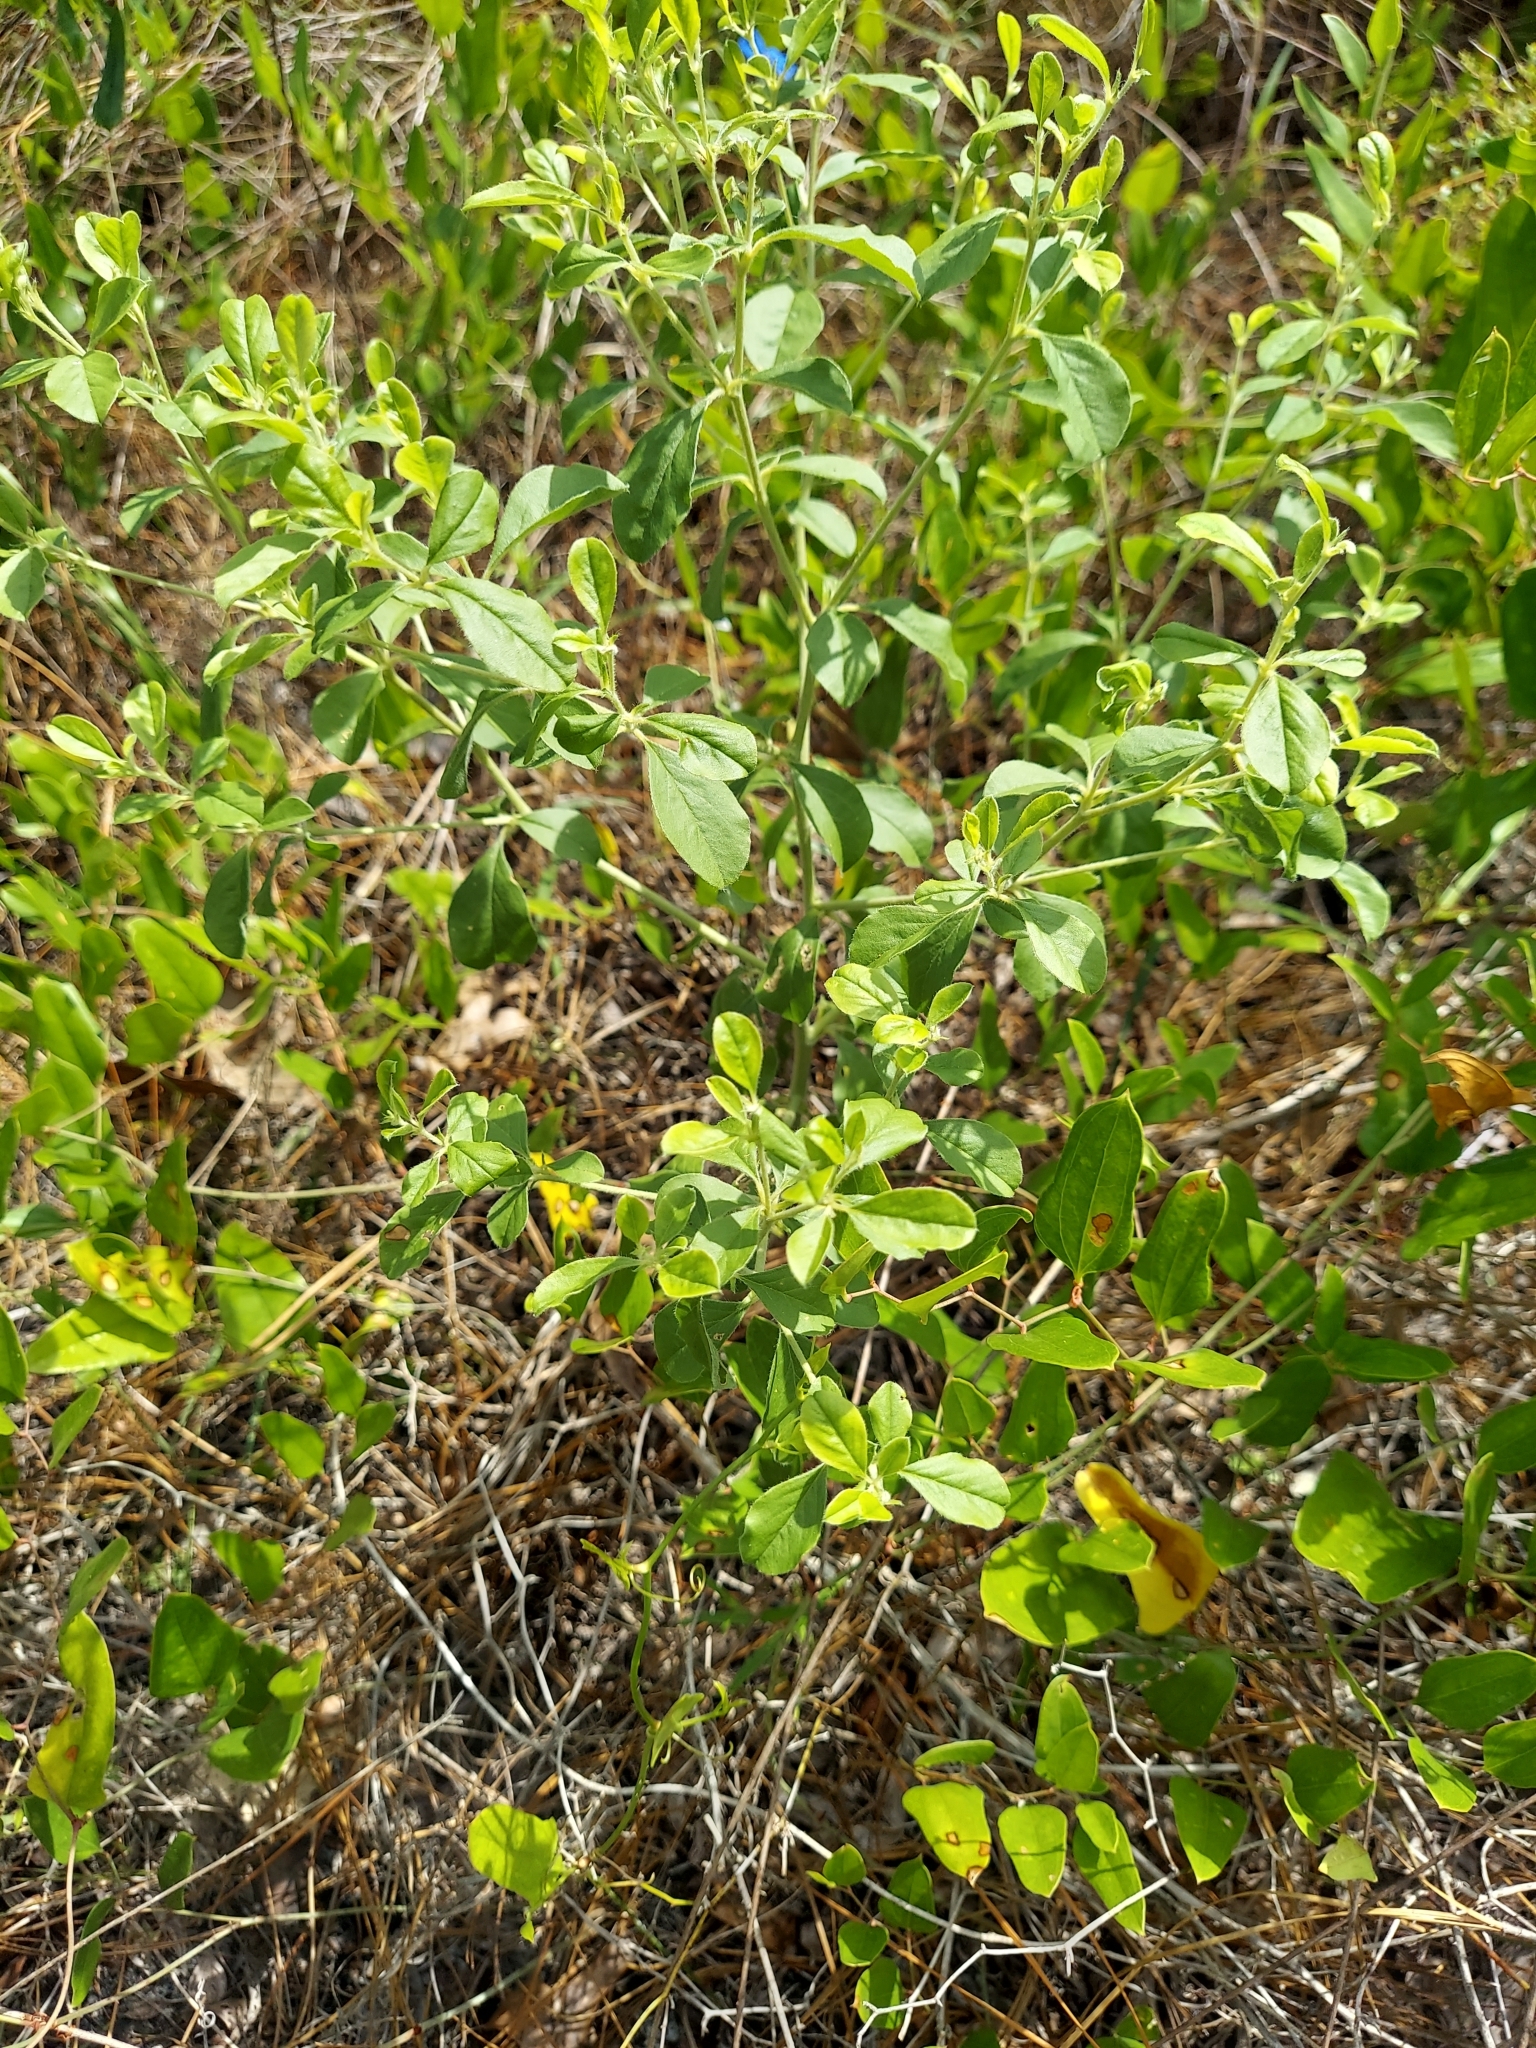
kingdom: Plantae
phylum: Tracheophyta
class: Magnoliopsida
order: Fabales
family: Fabaceae
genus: Pediomelum
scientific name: Pediomelum canescens
